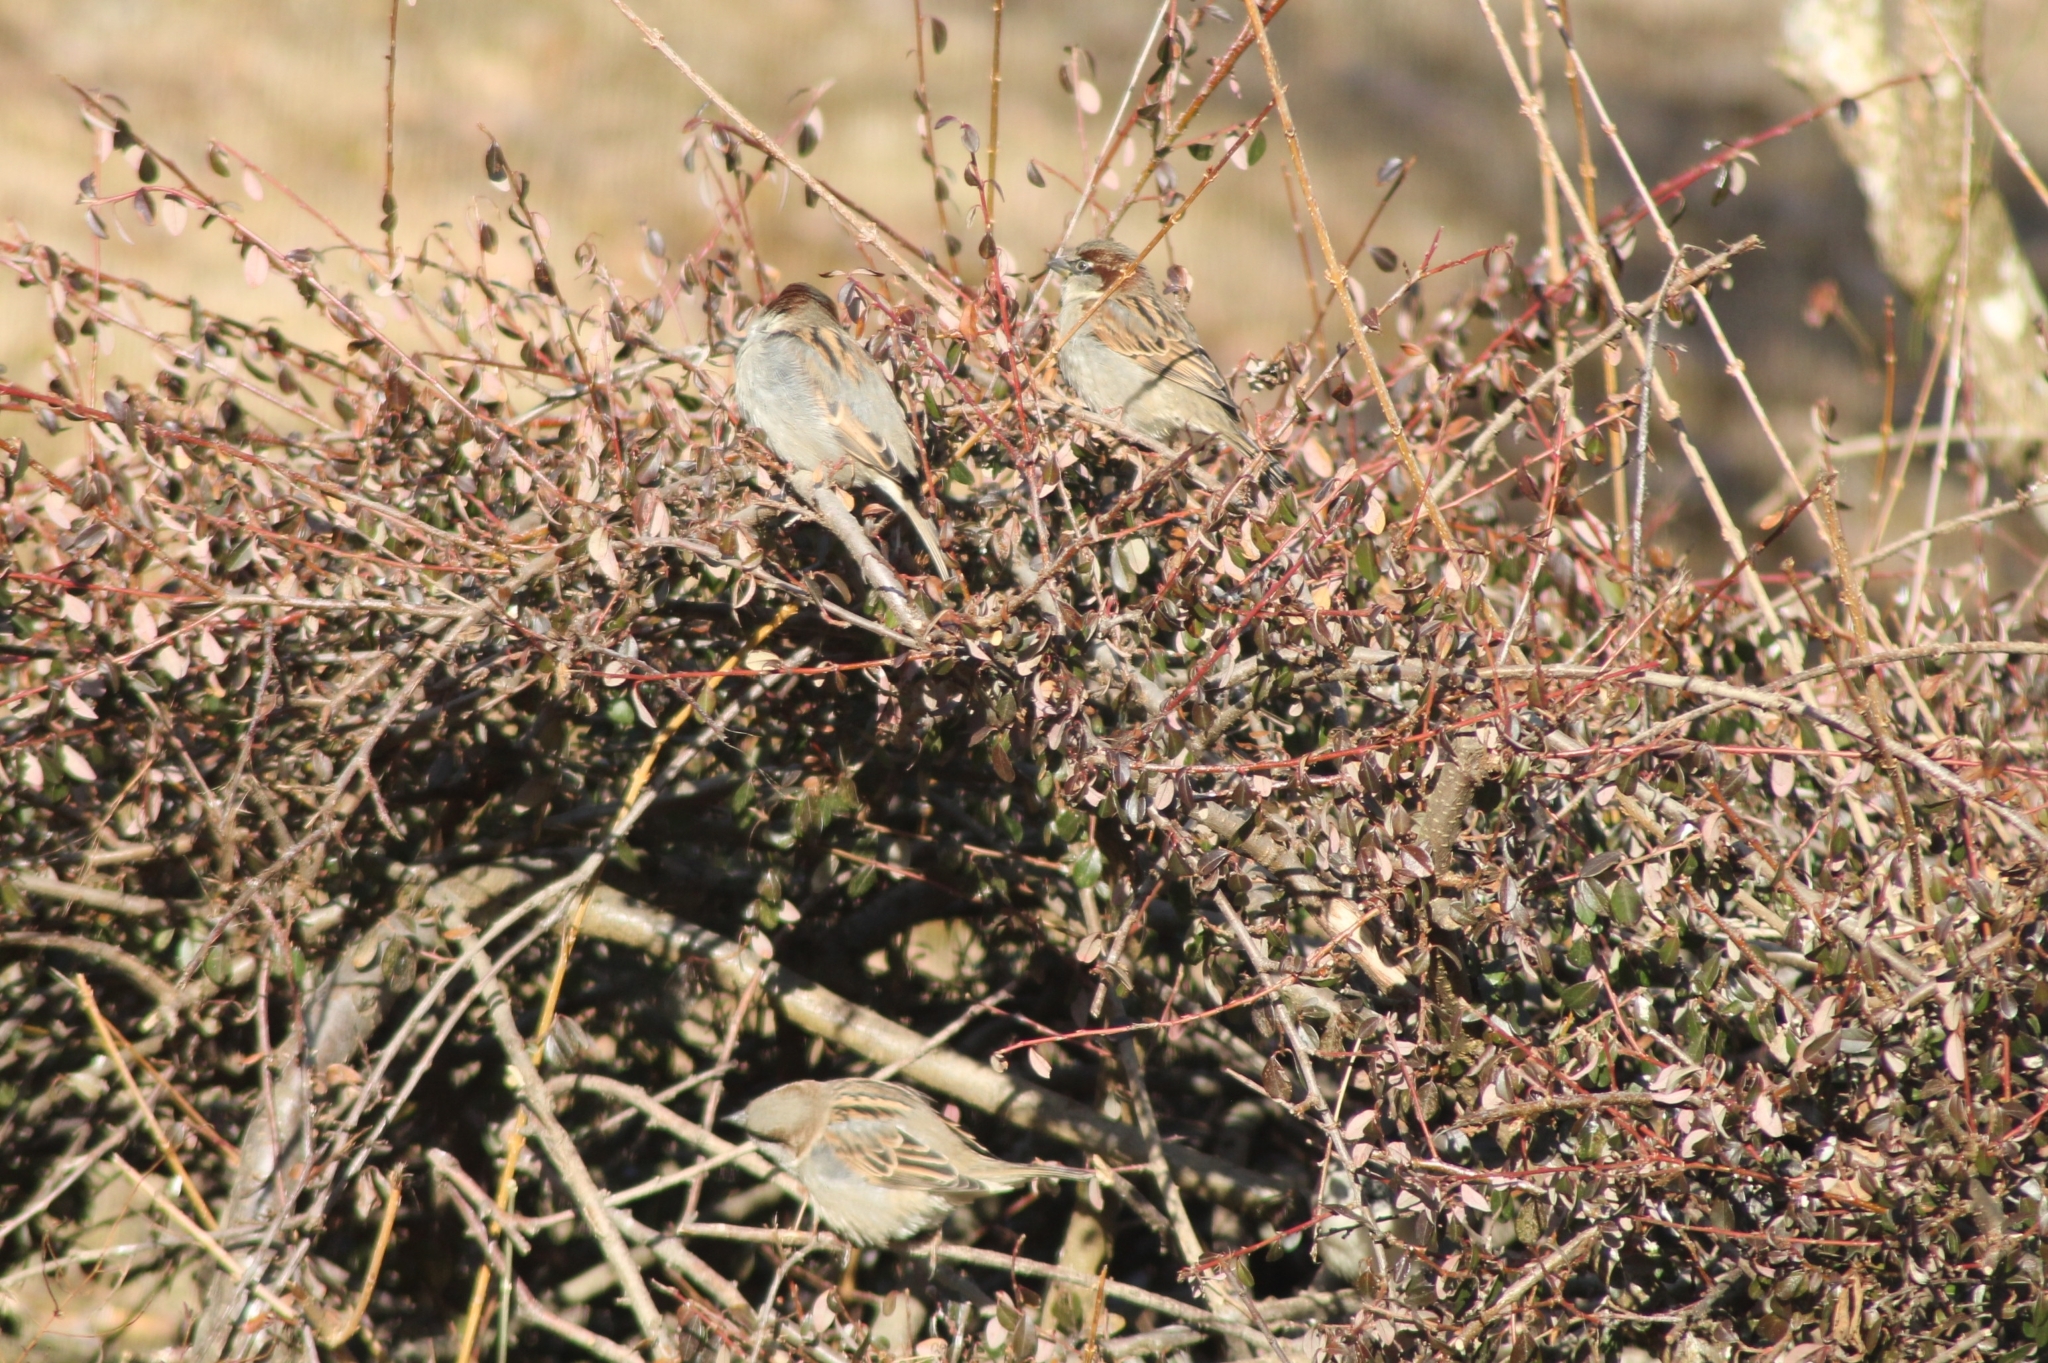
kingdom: Animalia
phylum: Chordata
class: Aves
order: Passeriformes
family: Passeridae
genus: Passer
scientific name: Passer domesticus
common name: House sparrow
